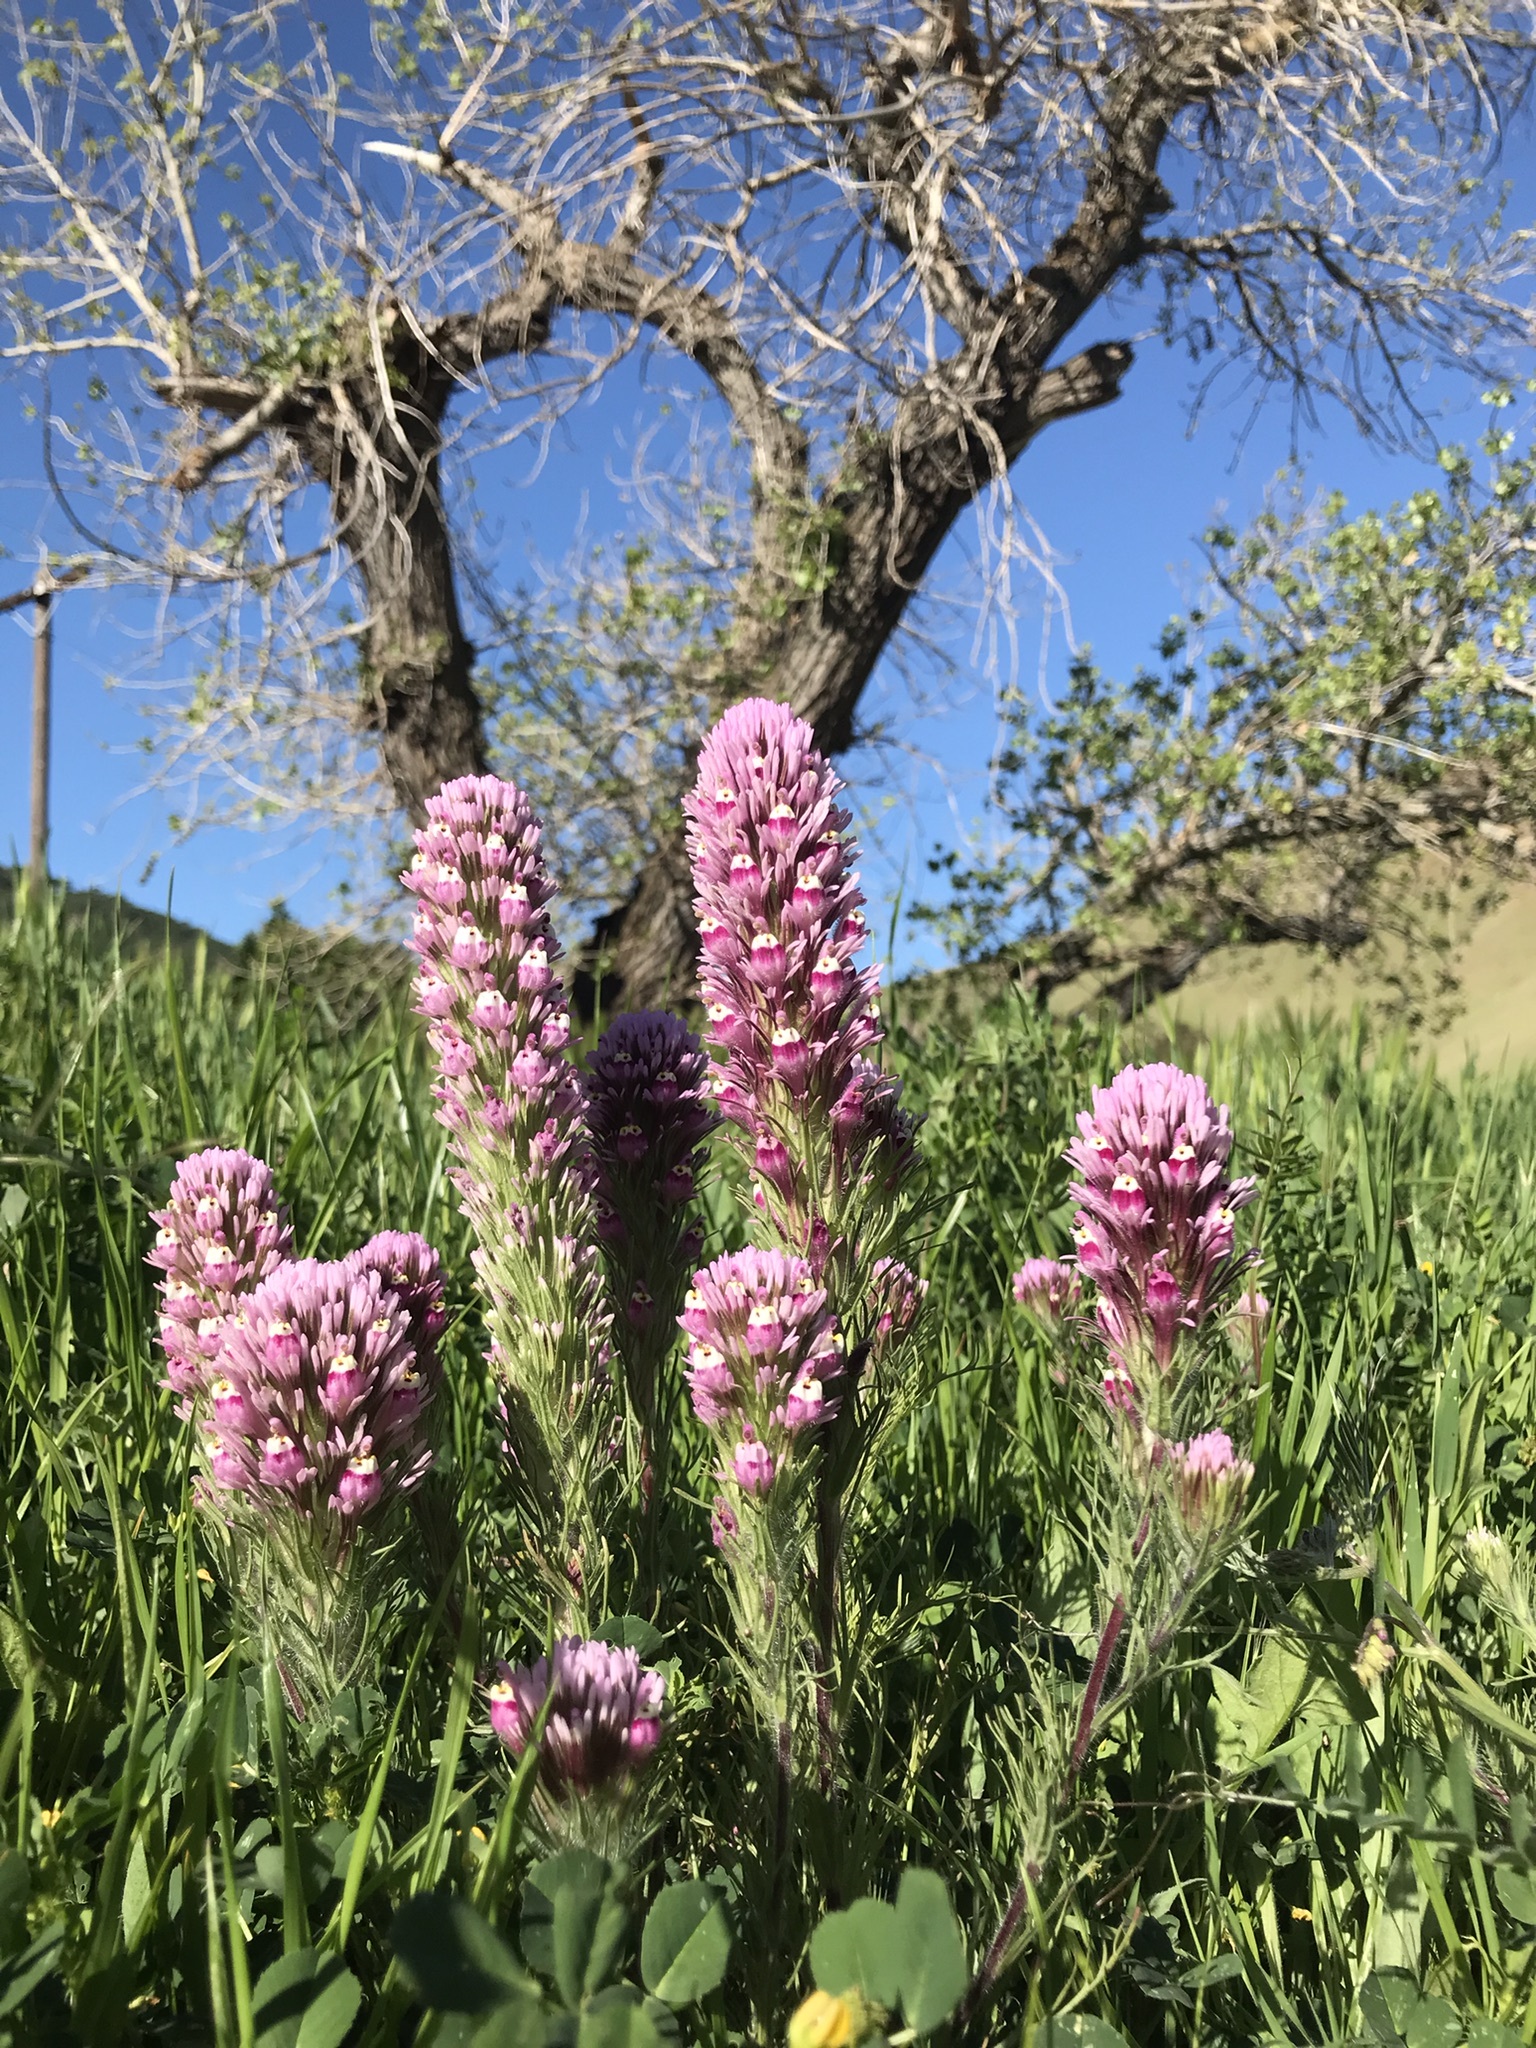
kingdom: Plantae
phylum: Tracheophyta
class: Magnoliopsida
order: Lamiales
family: Orobanchaceae
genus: Castilleja
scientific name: Castilleja exserta
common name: Purple owl-clover
